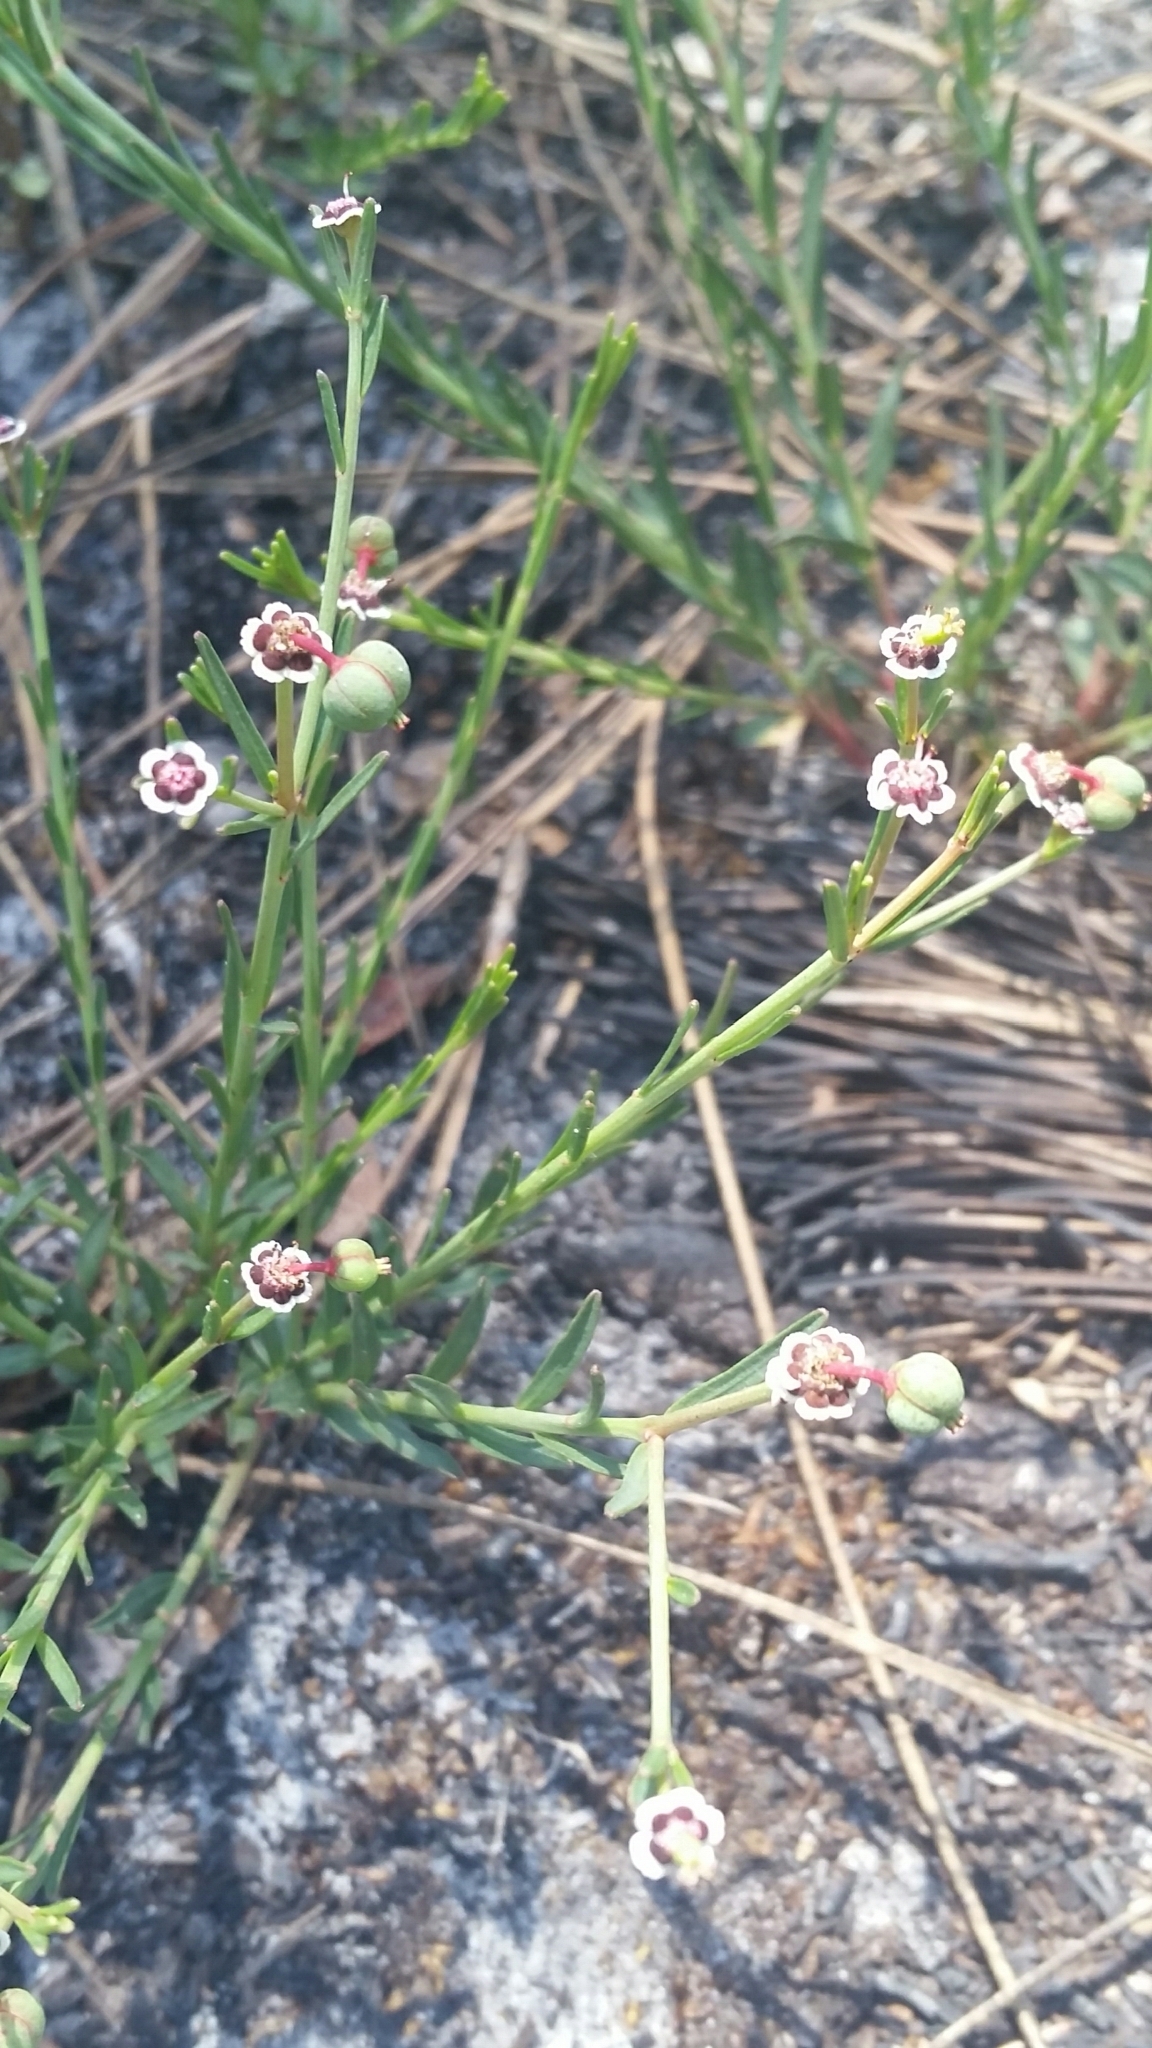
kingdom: Plantae
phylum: Tracheophyta
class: Magnoliopsida
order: Malpighiales
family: Euphorbiaceae
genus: Euphorbia
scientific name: Euphorbia polyphylla
